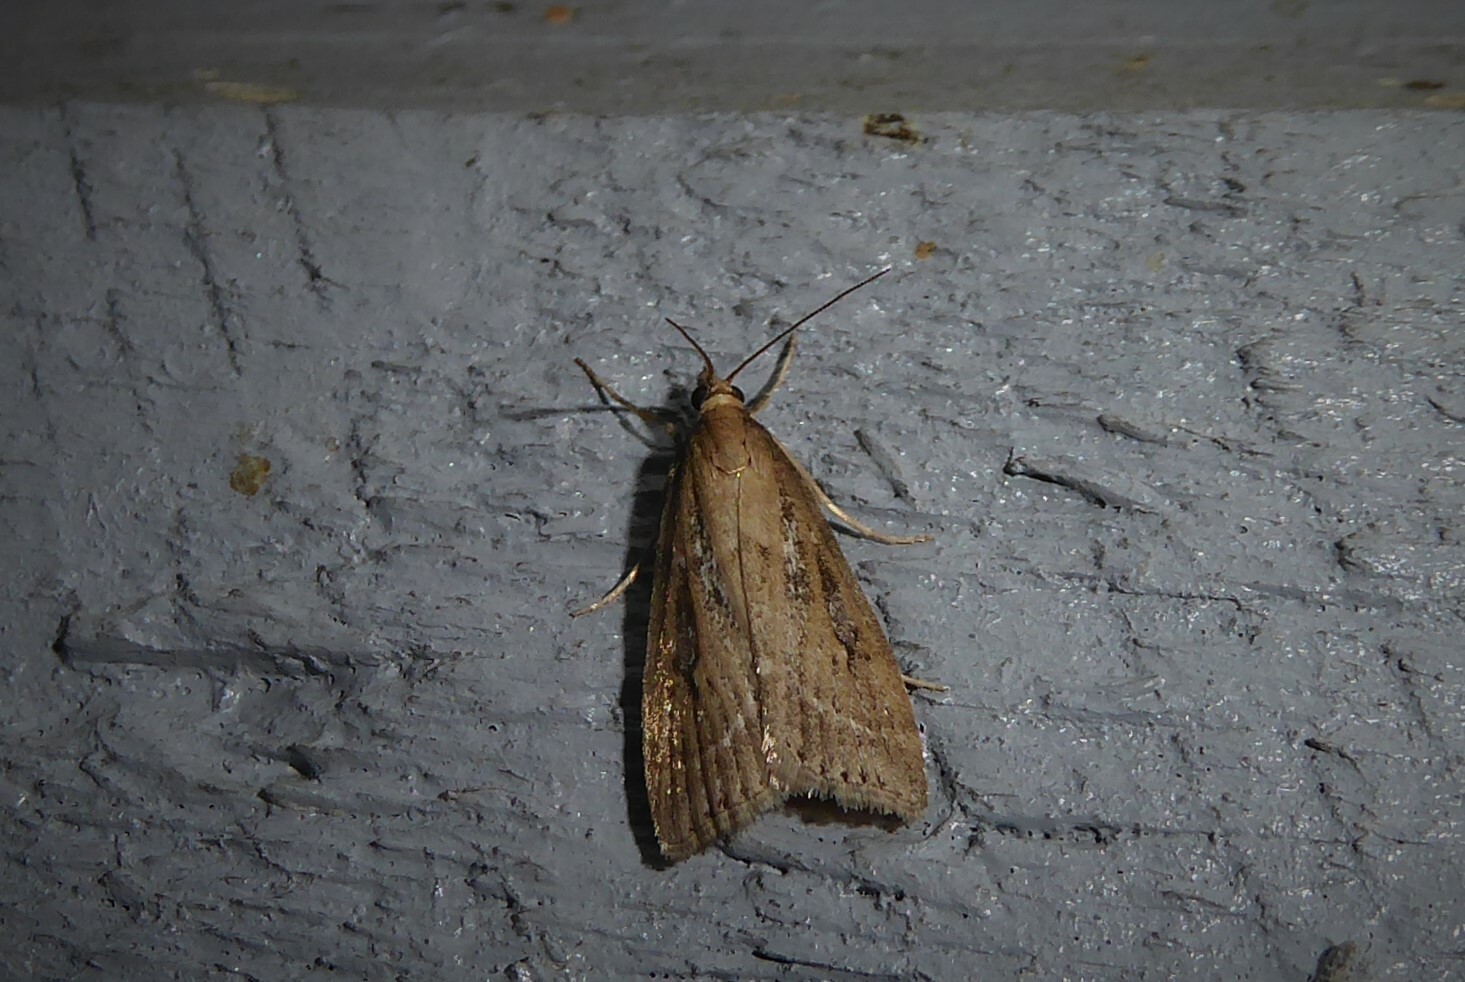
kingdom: Animalia
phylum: Arthropoda
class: Insecta
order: Lepidoptera
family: Crambidae
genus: Eudonia
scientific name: Eudonia octophora
